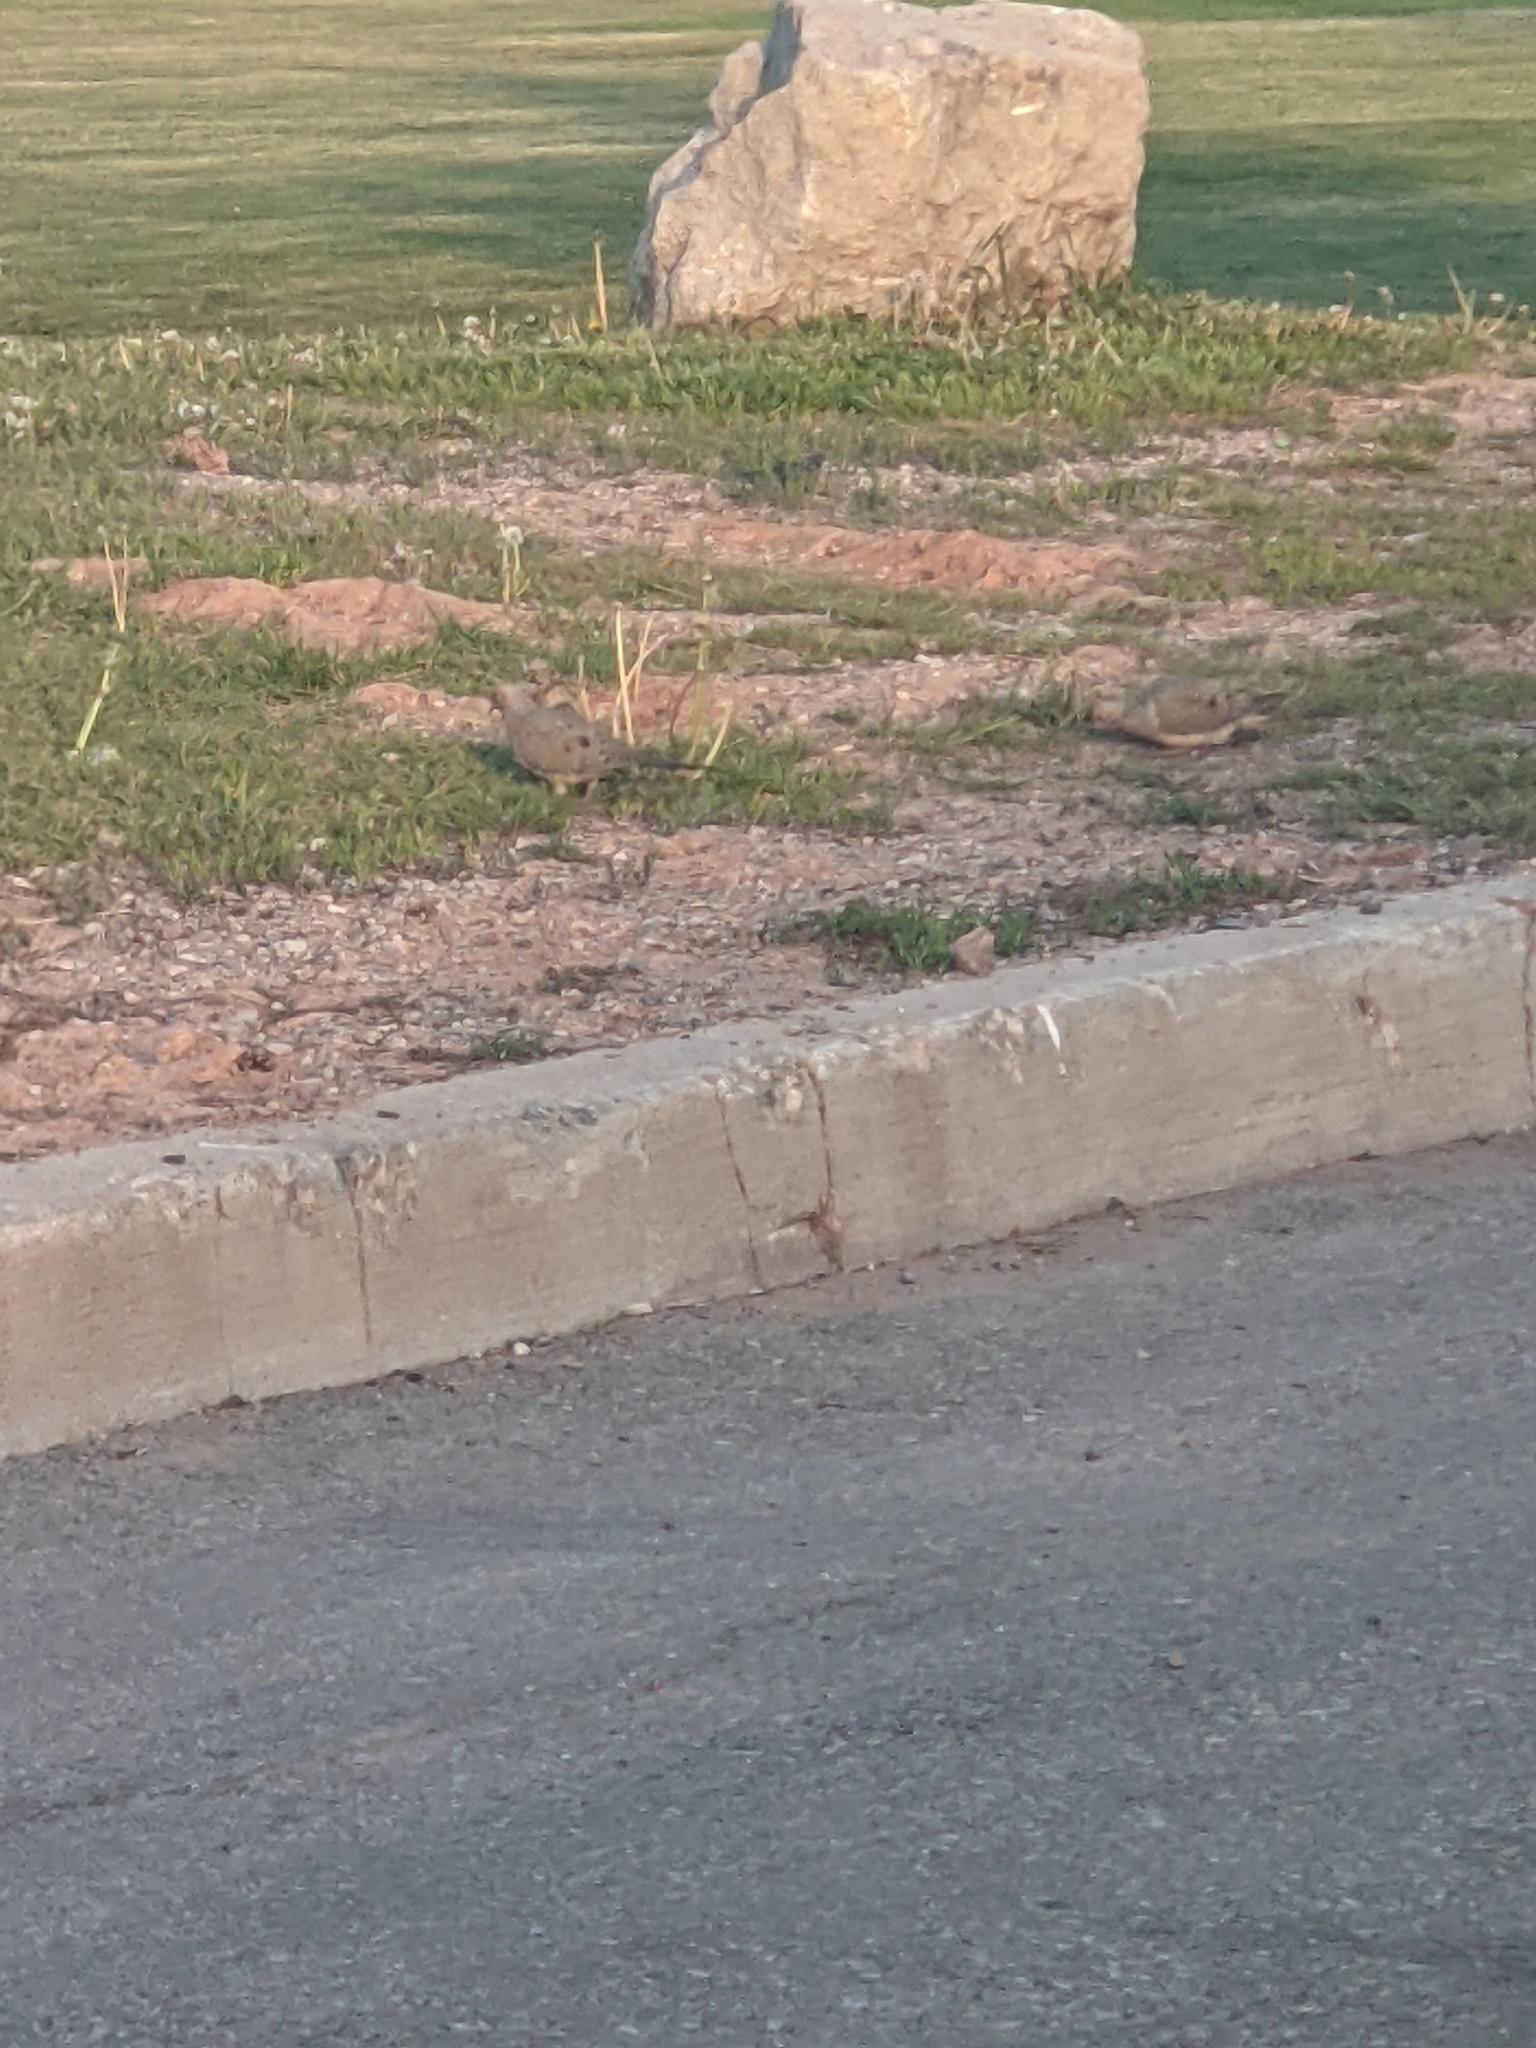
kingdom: Animalia
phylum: Chordata
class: Aves
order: Columbiformes
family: Columbidae
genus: Zenaida
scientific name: Zenaida macroura
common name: Mourning dove
